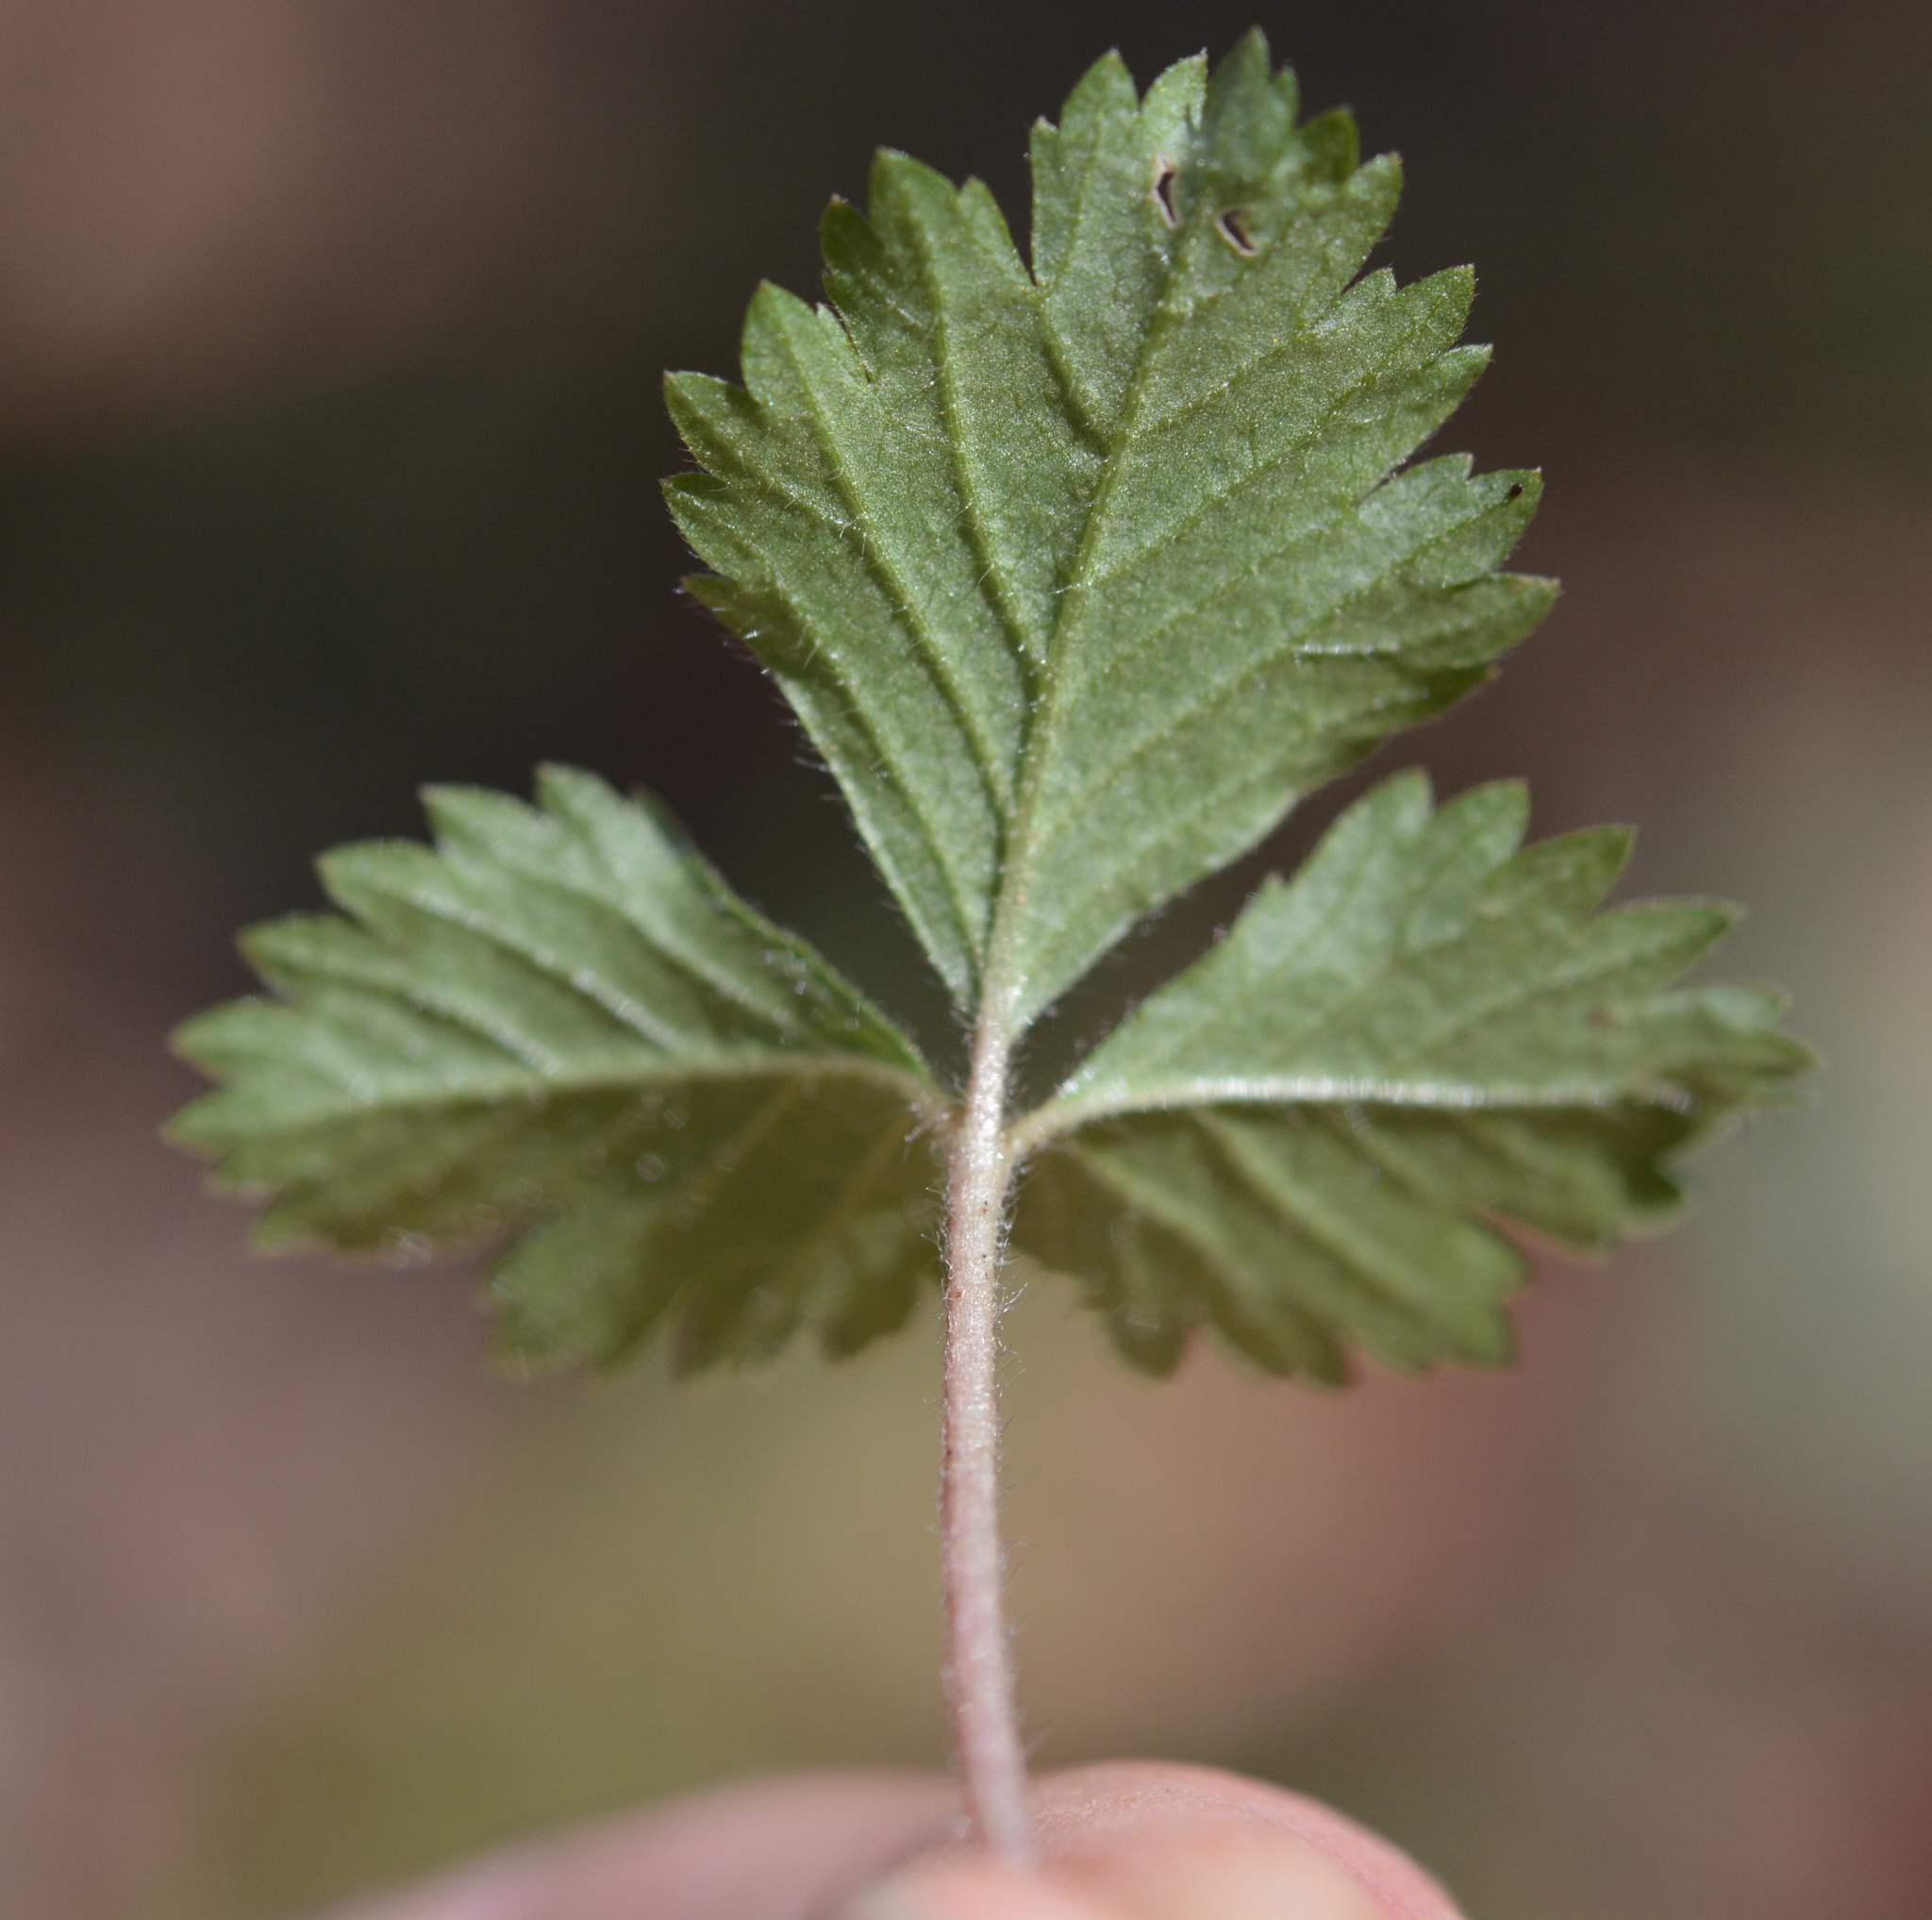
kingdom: Plantae
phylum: Tracheophyta
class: Magnoliopsida
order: Rosales
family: Rosaceae
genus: Potentilla
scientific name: Potentilla indica
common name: Yellow-flowered strawberry
